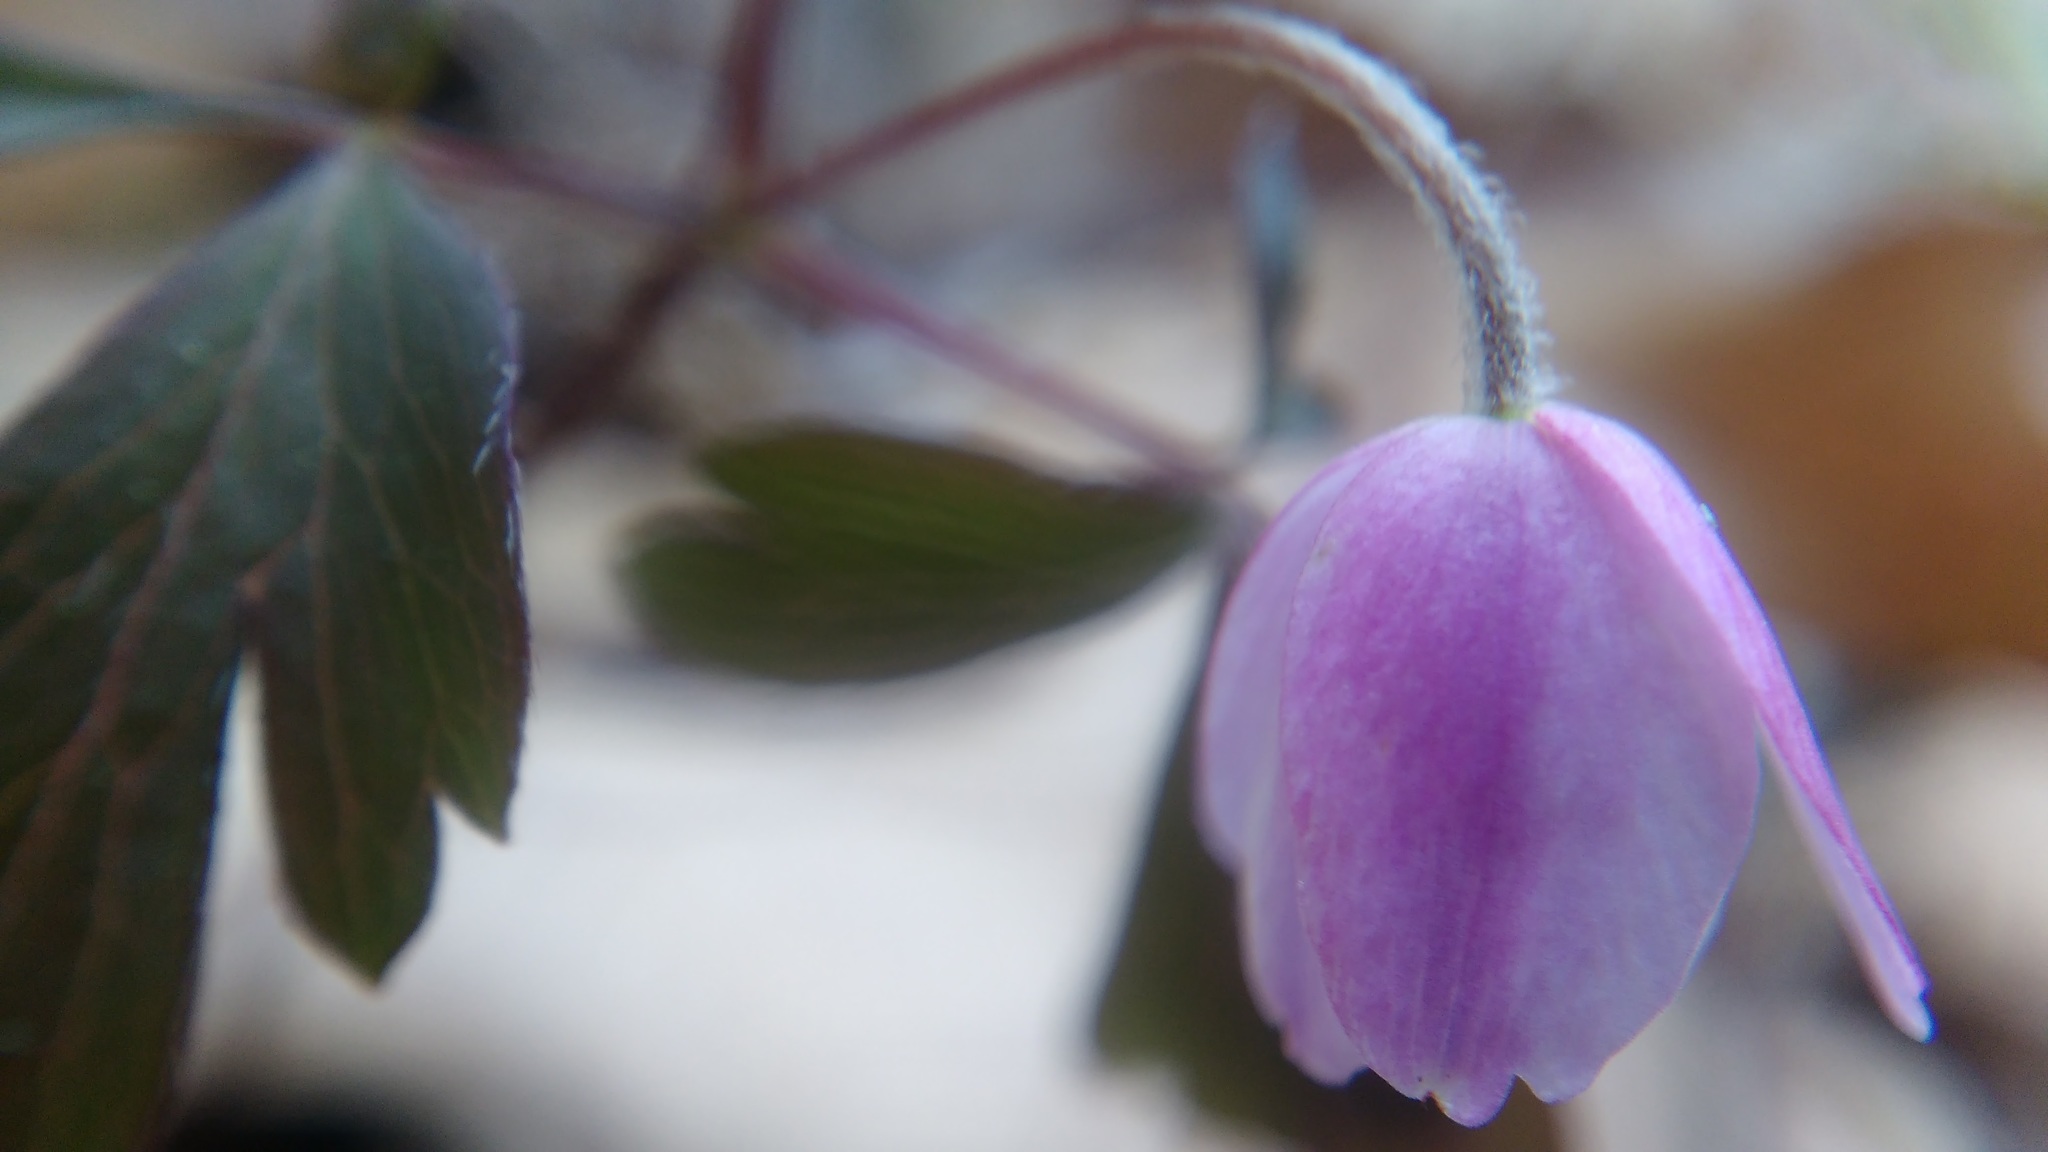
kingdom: Plantae
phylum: Tracheophyta
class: Magnoliopsida
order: Ranunculales
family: Ranunculaceae
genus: Anemone
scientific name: Anemone quinquefolia
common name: Wood anemone
